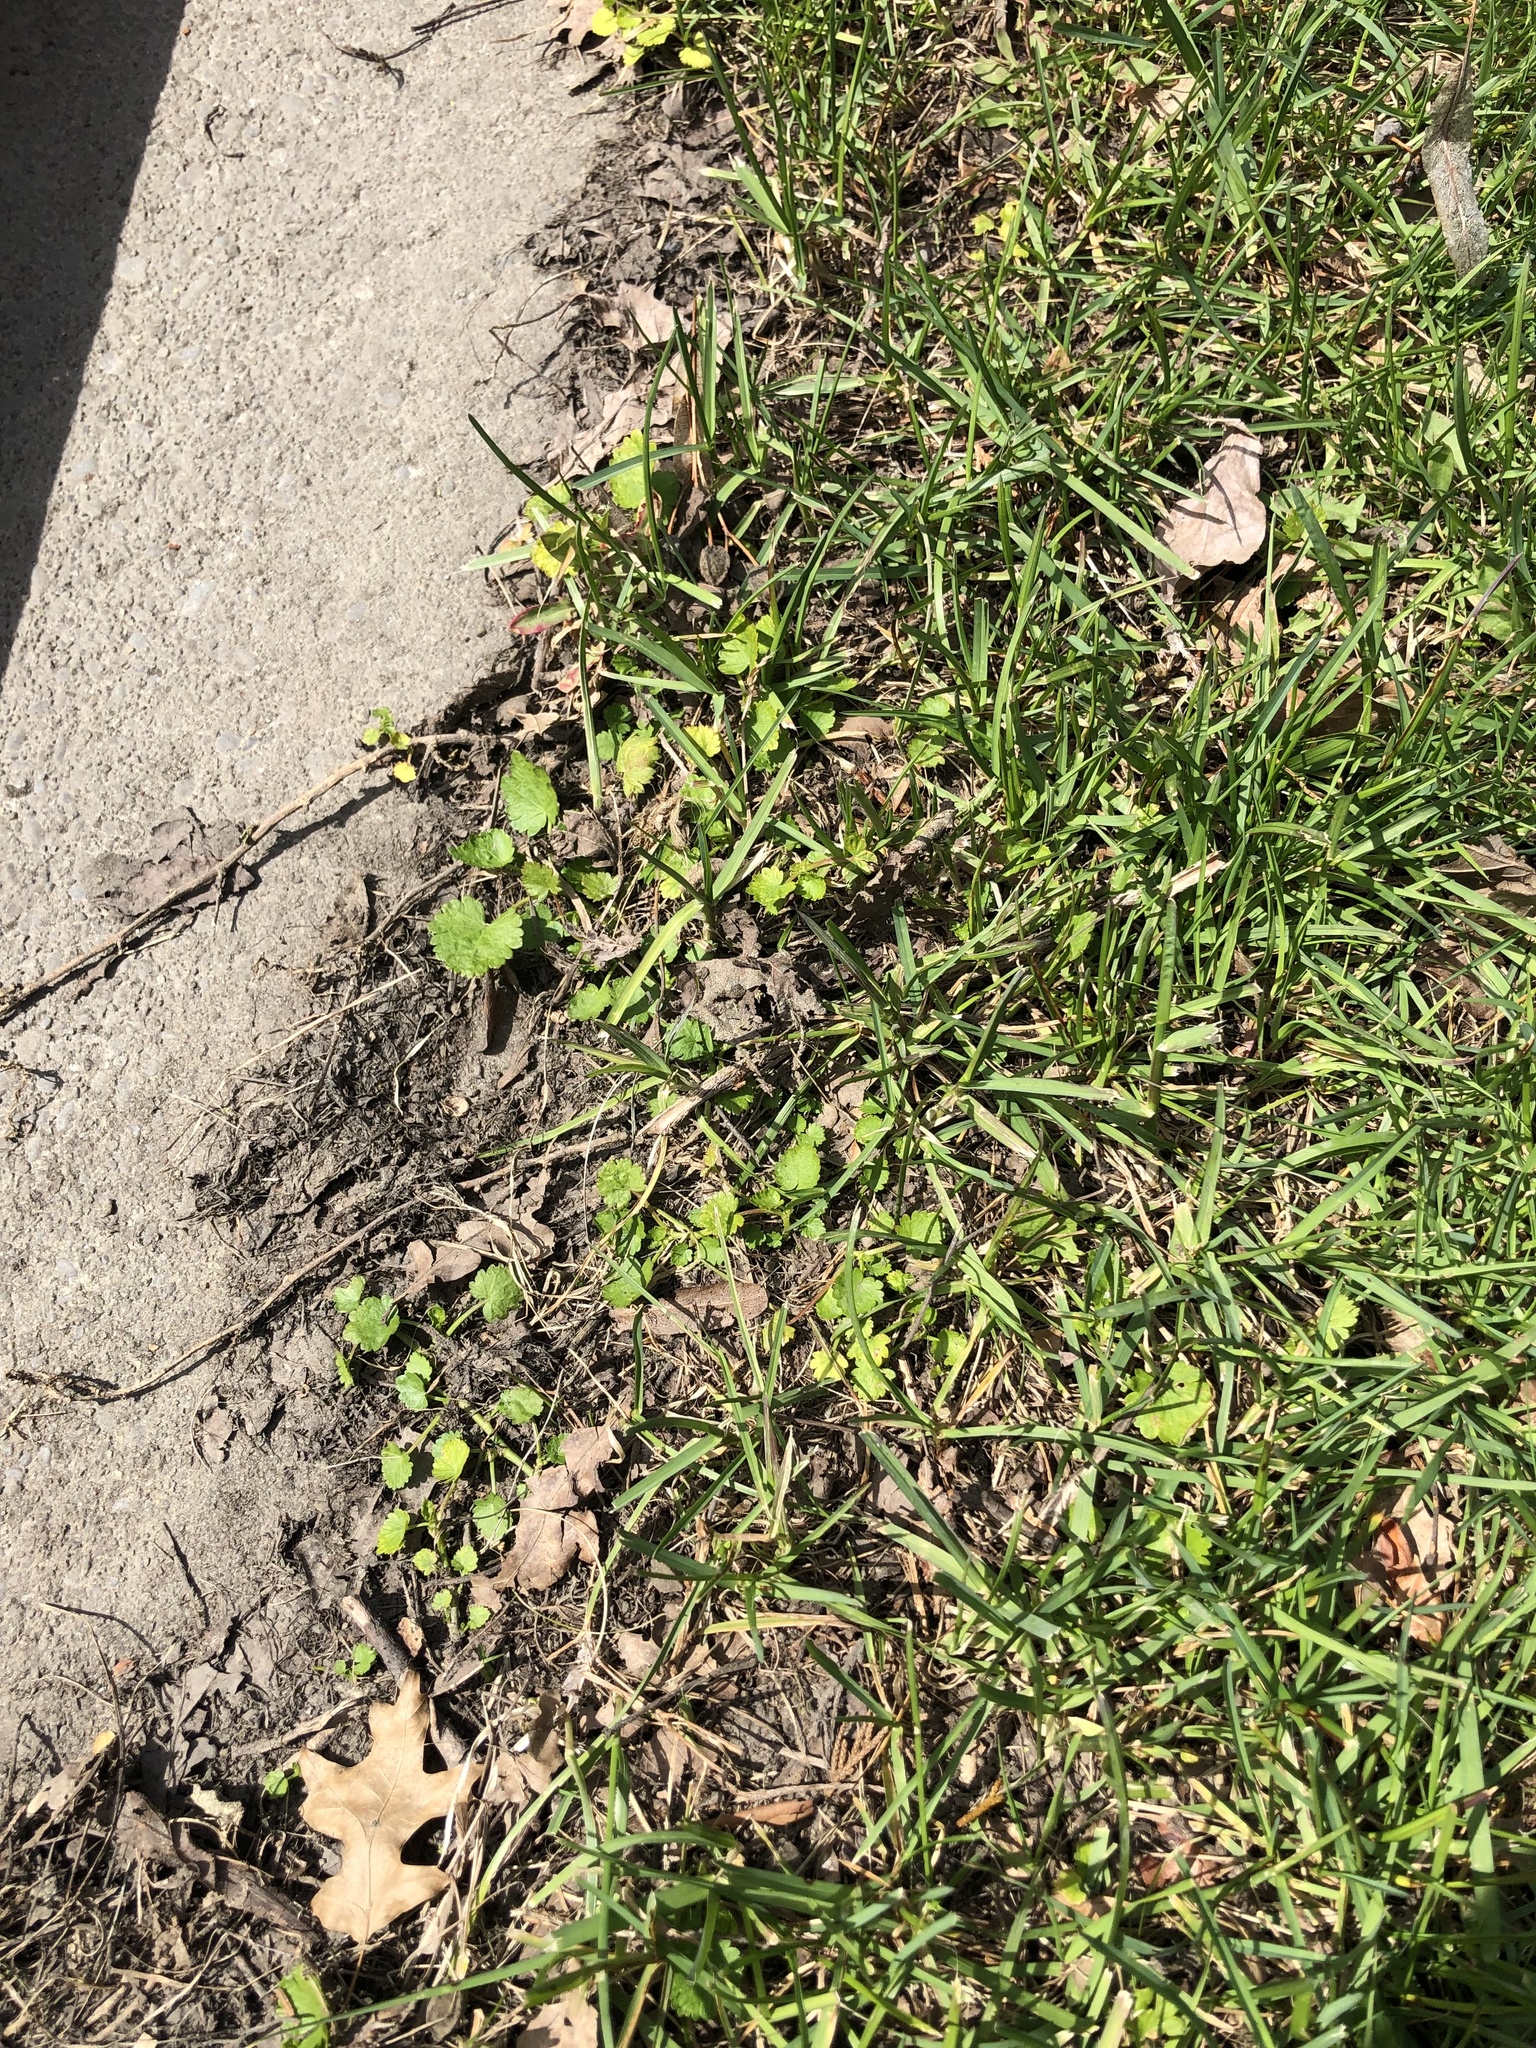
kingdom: Plantae
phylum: Tracheophyta
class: Magnoliopsida
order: Malvales
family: Malvaceae
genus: Modiola
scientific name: Modiola caroliniana
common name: Carolina bristlemallow
